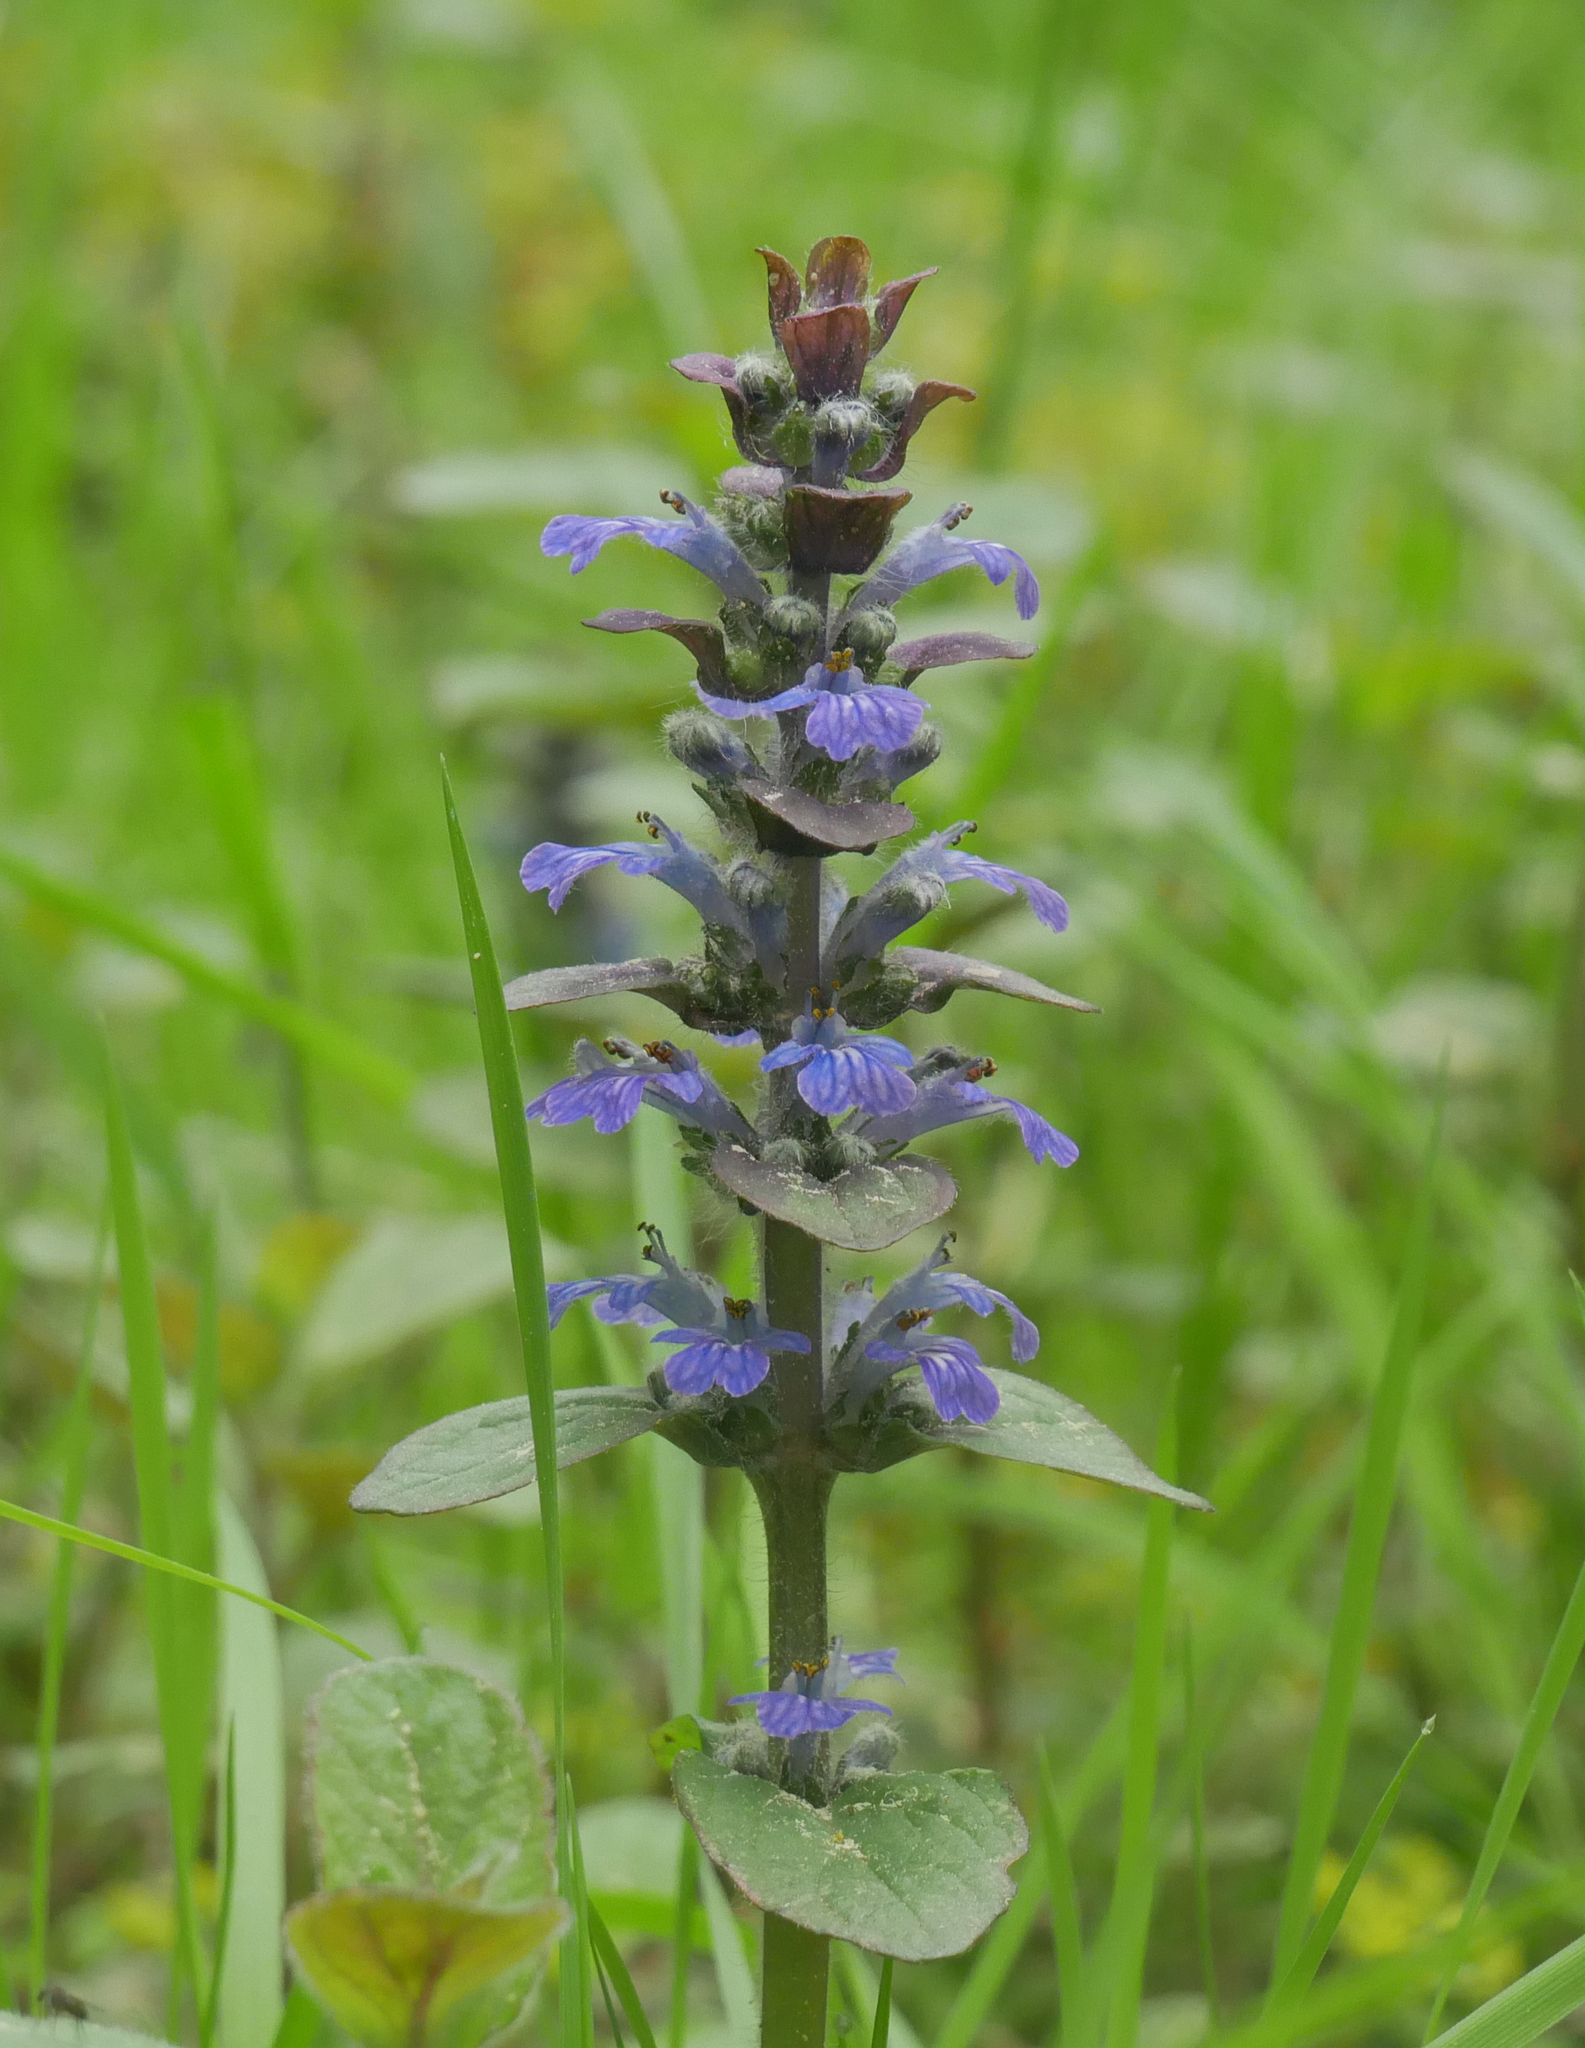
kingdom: Plantae
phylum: Tracheophyta
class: Magnoliopsida
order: Lamiales
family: Lamiaceae
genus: Ajuga
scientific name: Ajuga reptans
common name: Bugle
